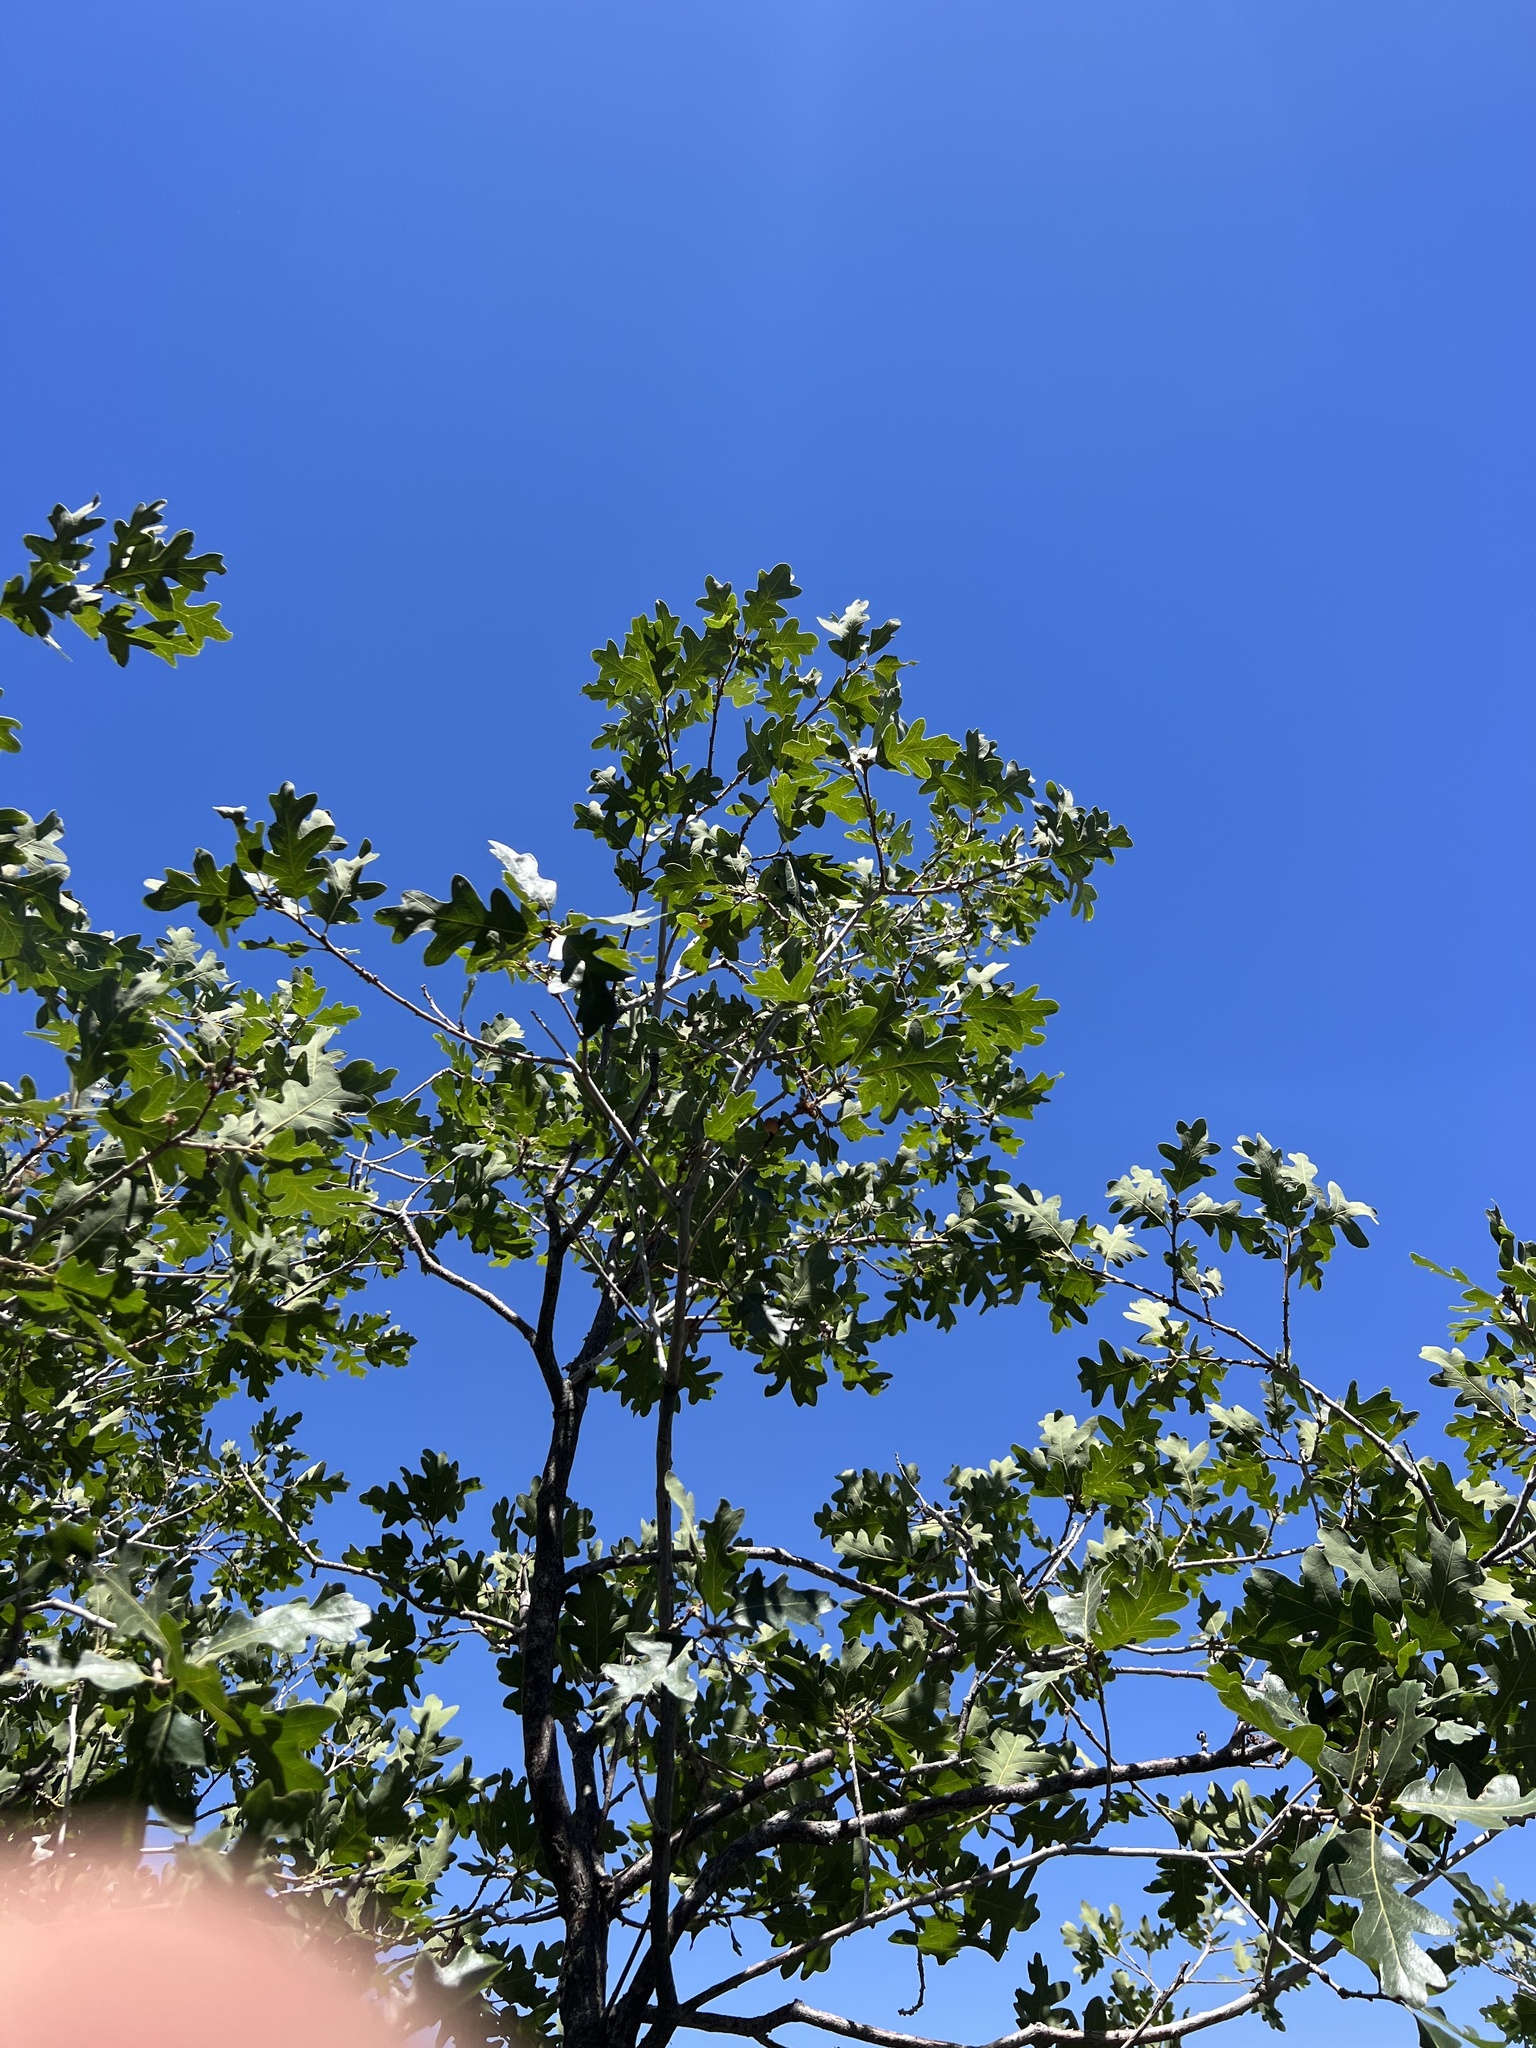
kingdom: Plantae
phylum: Tracheophyta
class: Magnoliopsida
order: Fagales
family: Fagaceae
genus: Quercus
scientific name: Quercus gambelii
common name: Gambel oak
